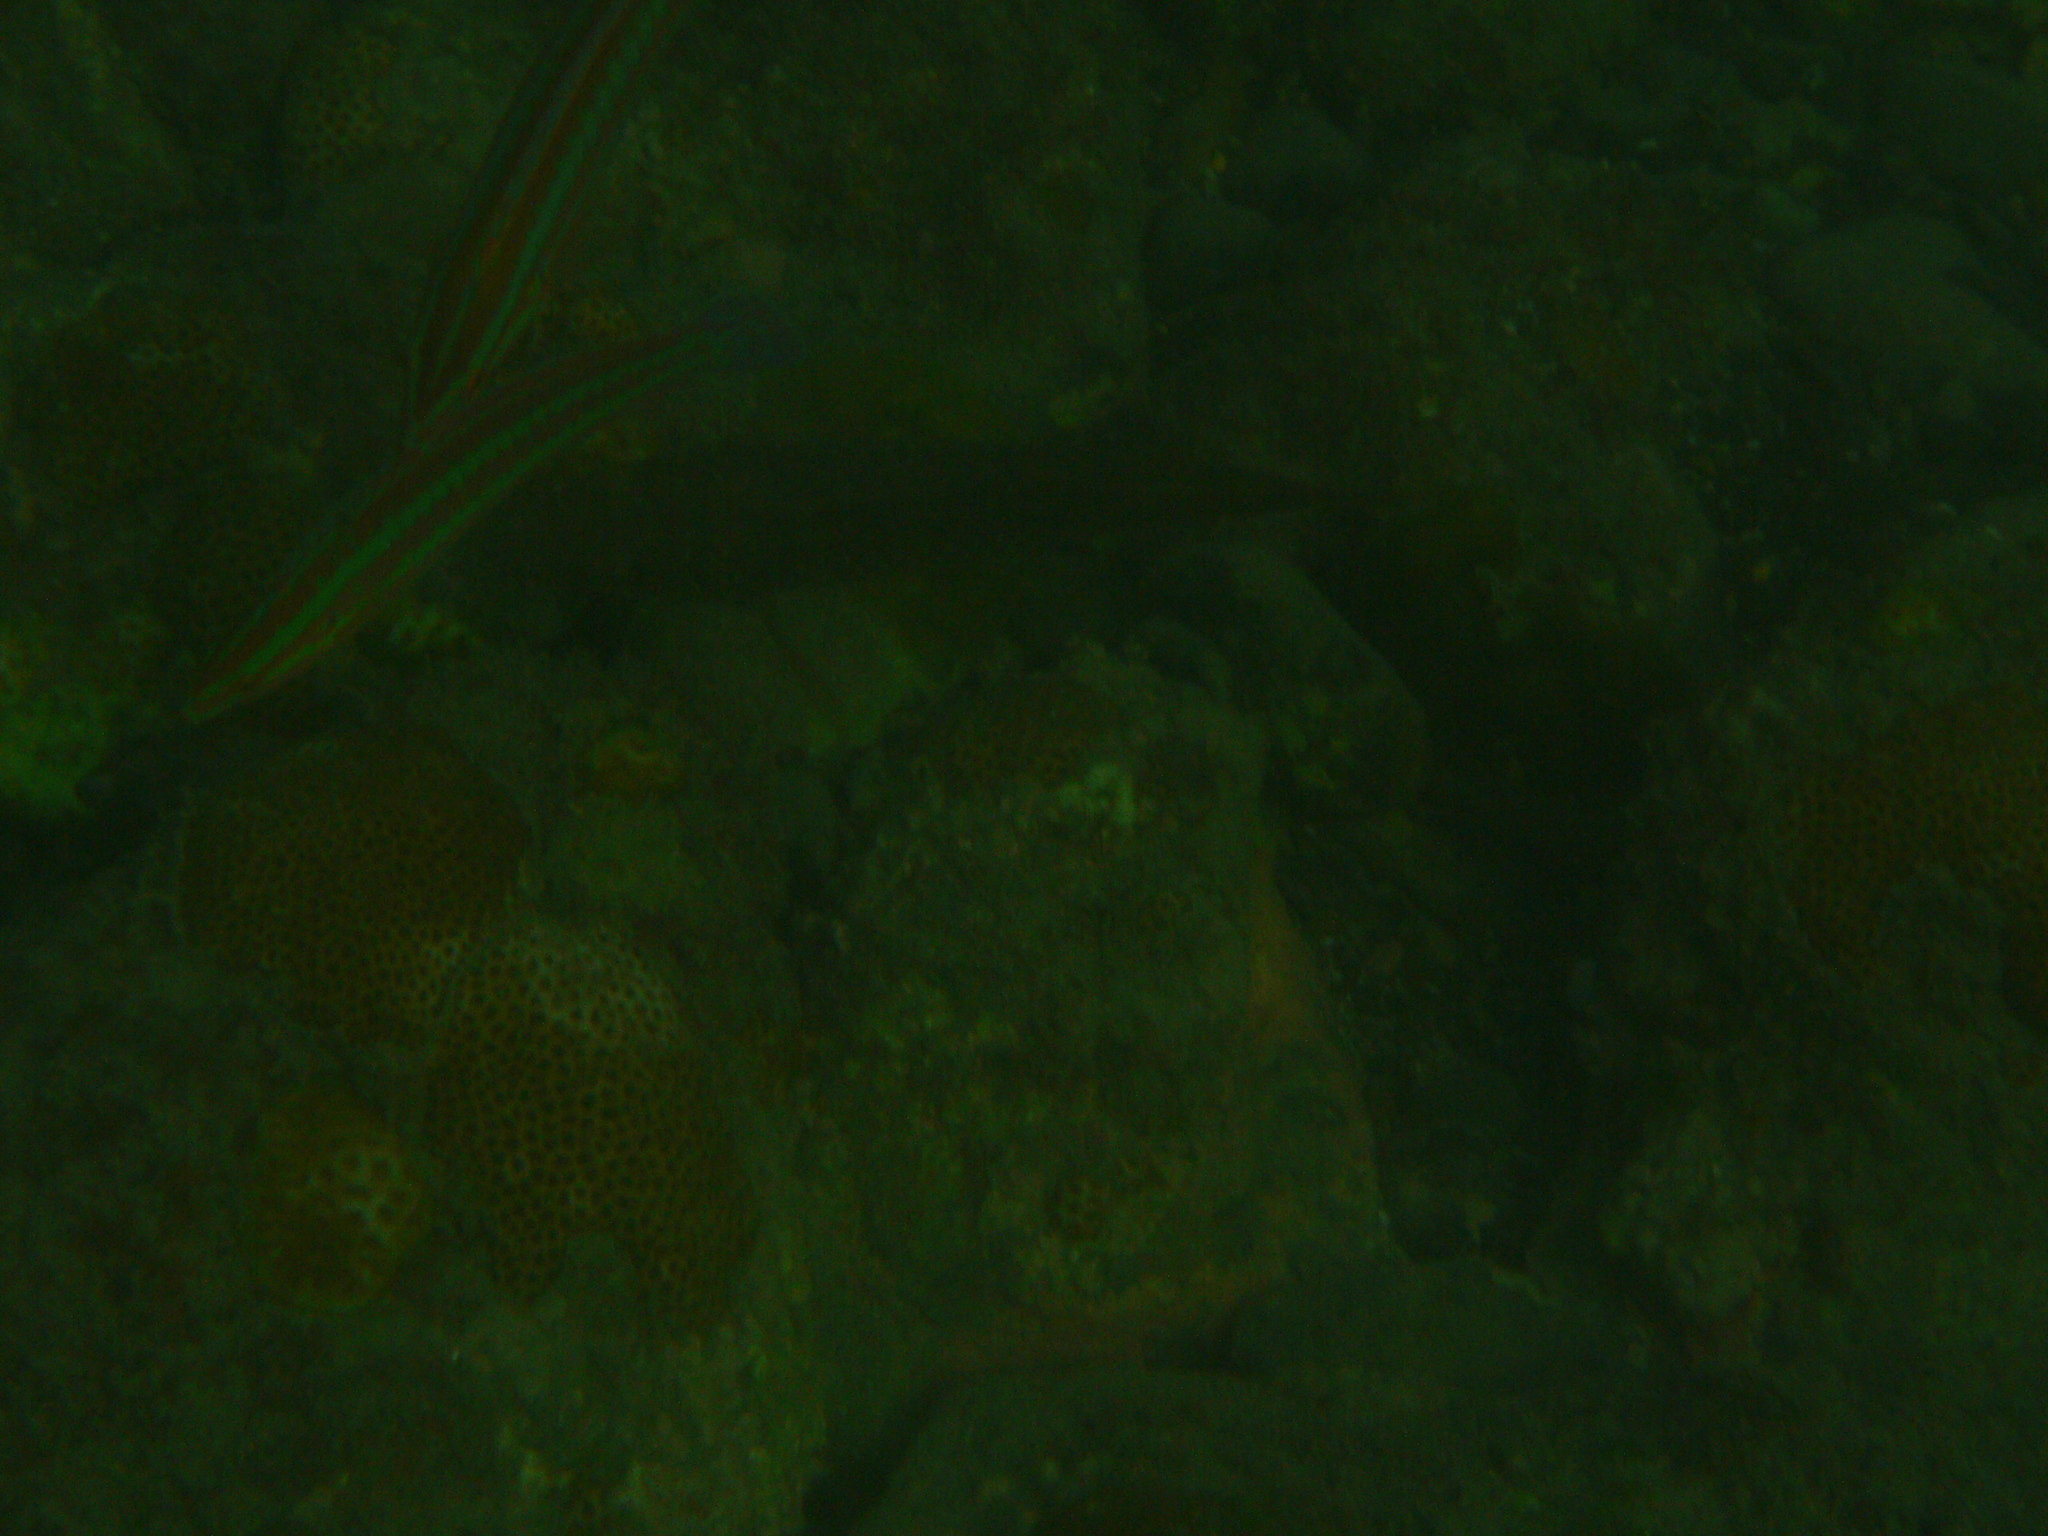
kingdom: Animalia
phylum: Chordata
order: Perciformes
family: Labridae
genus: Coris
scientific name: Coris atlantica
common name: Rainbow wrasse
